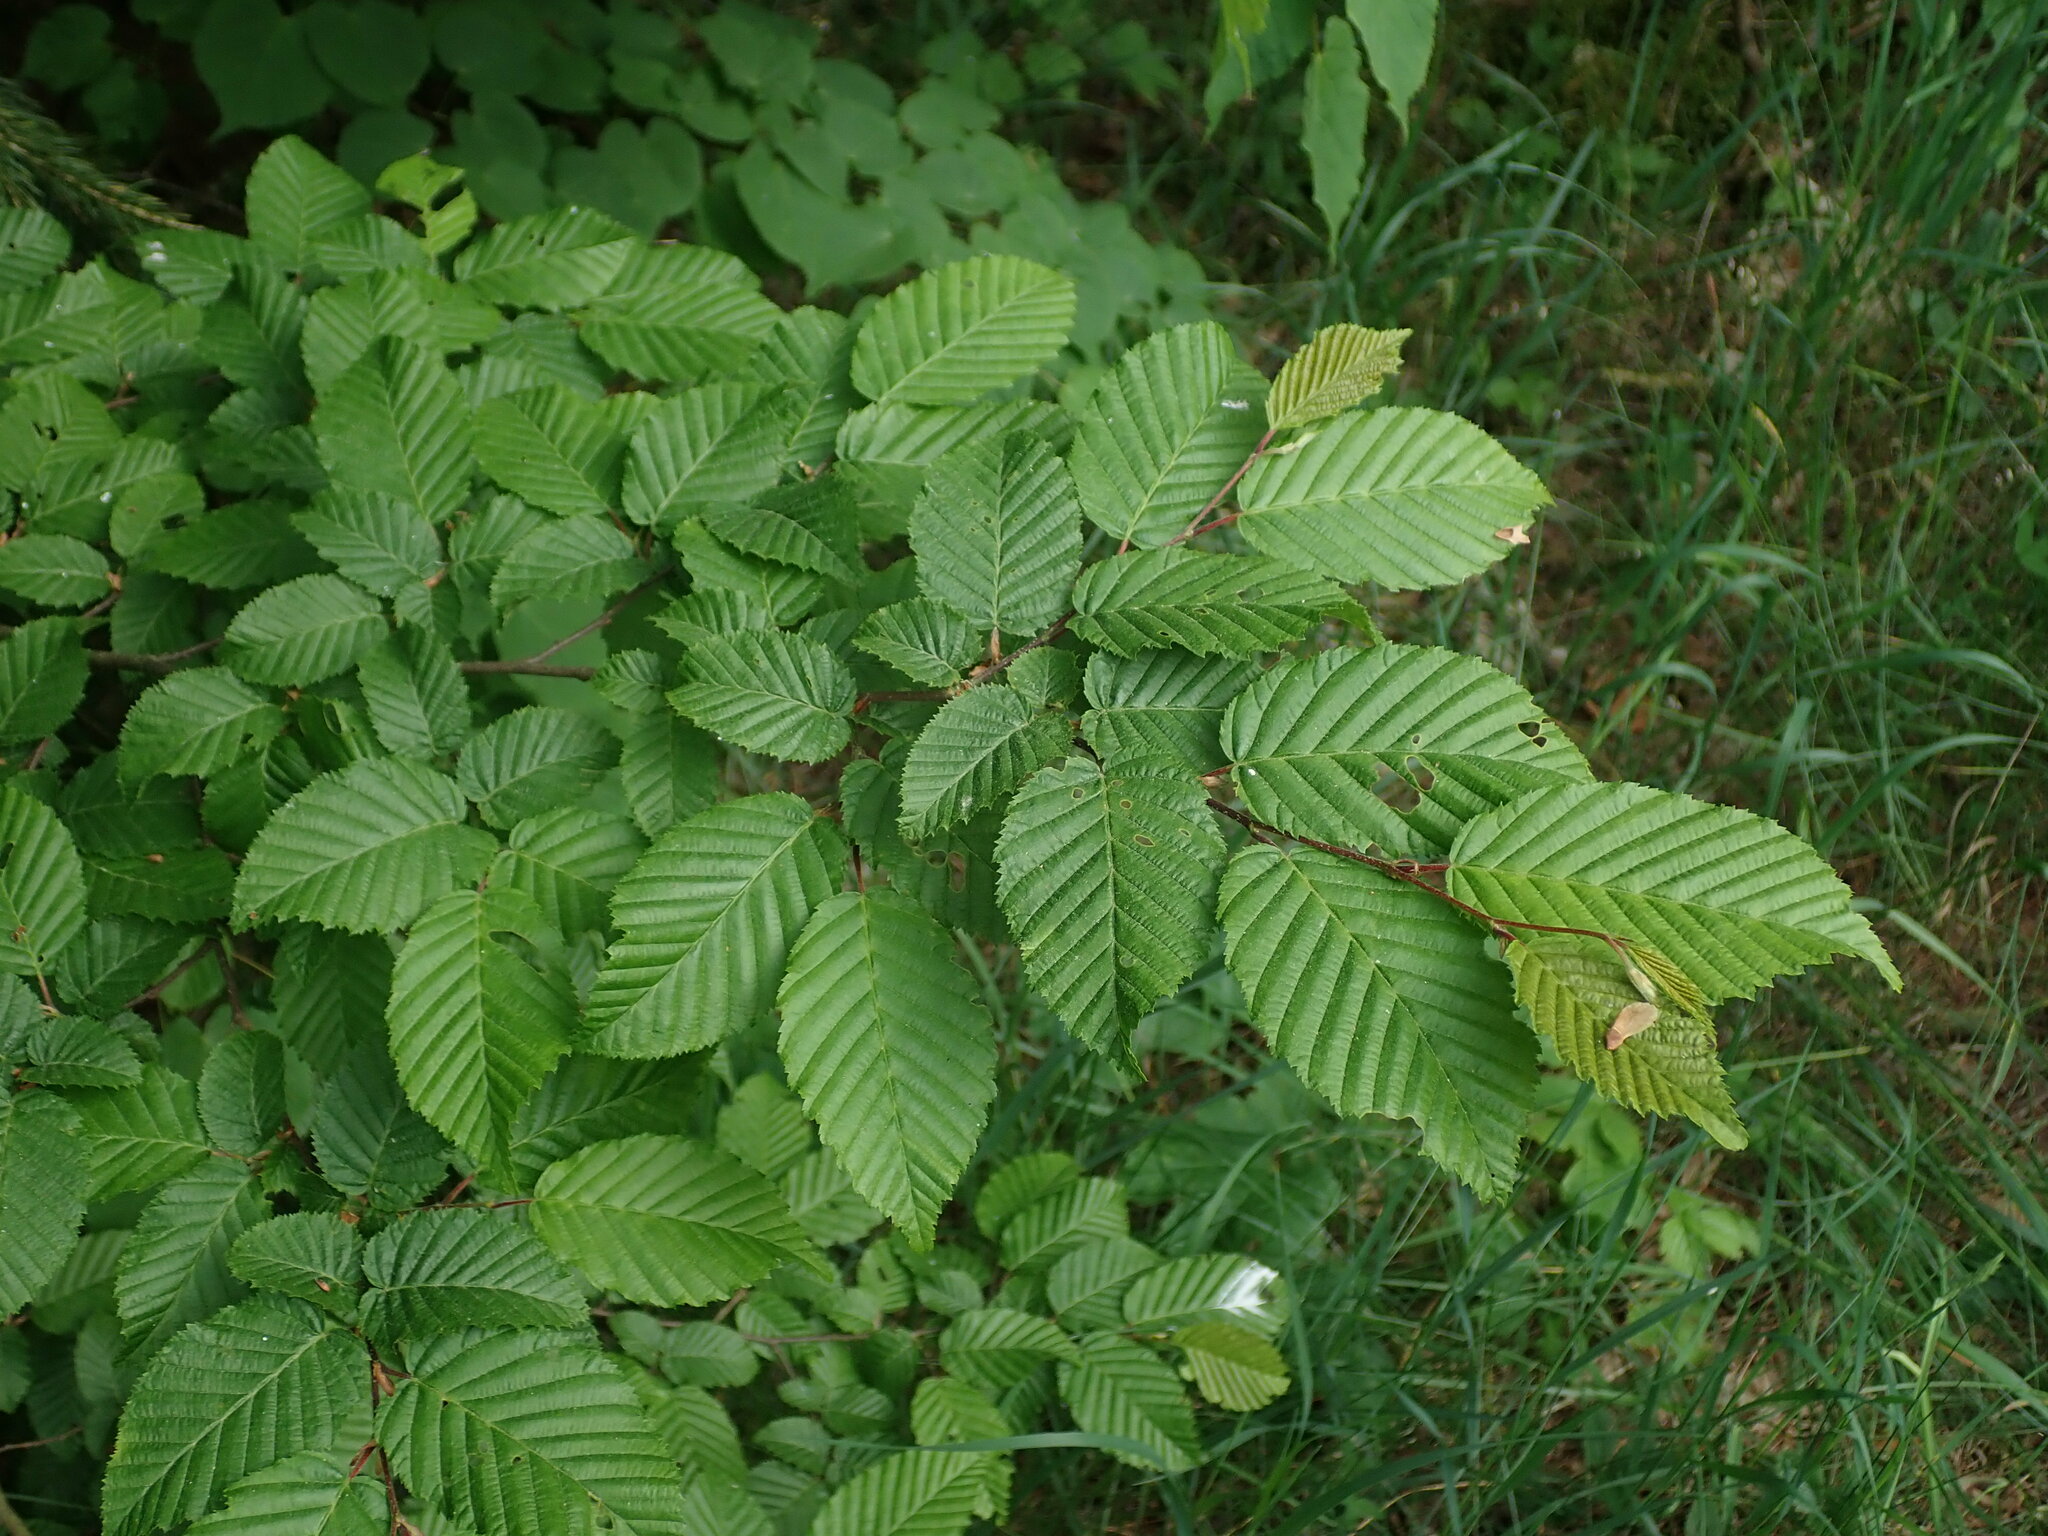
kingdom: Plantae
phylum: Tracheophyta
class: Magnoliopsida
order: Fagales
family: Betulaceae
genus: Carpinus
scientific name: Carpinus betulus
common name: Hornbeam
